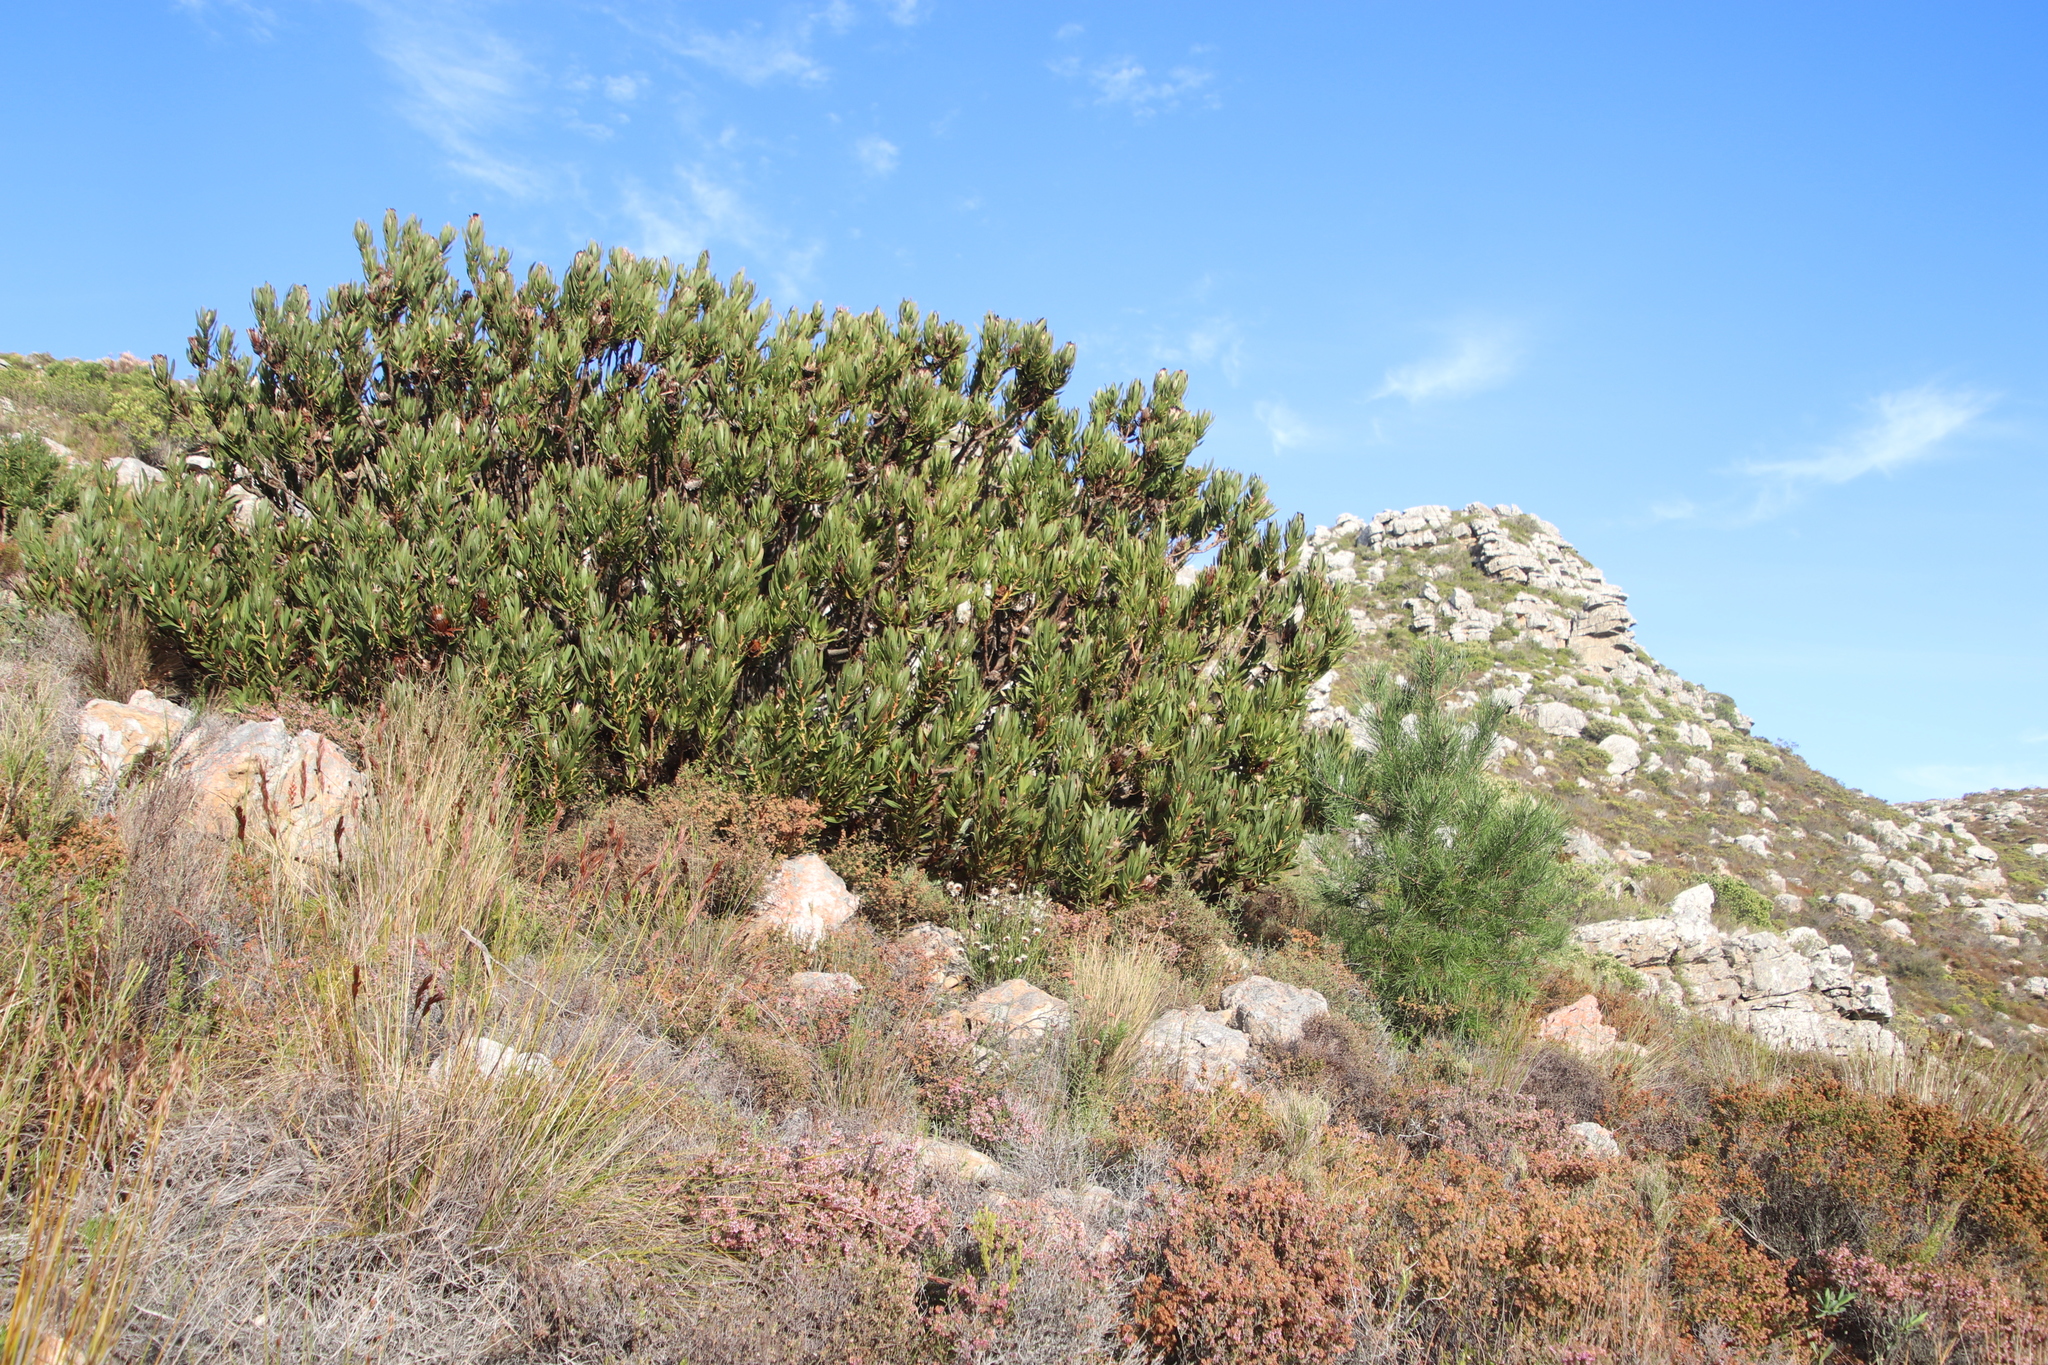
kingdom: Plantae
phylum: Tracheophyta
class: Magnoliopsida
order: Proteales
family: Proteaceae
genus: Protea
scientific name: Protea lepidocarpodendron
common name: Black-bearded protea
